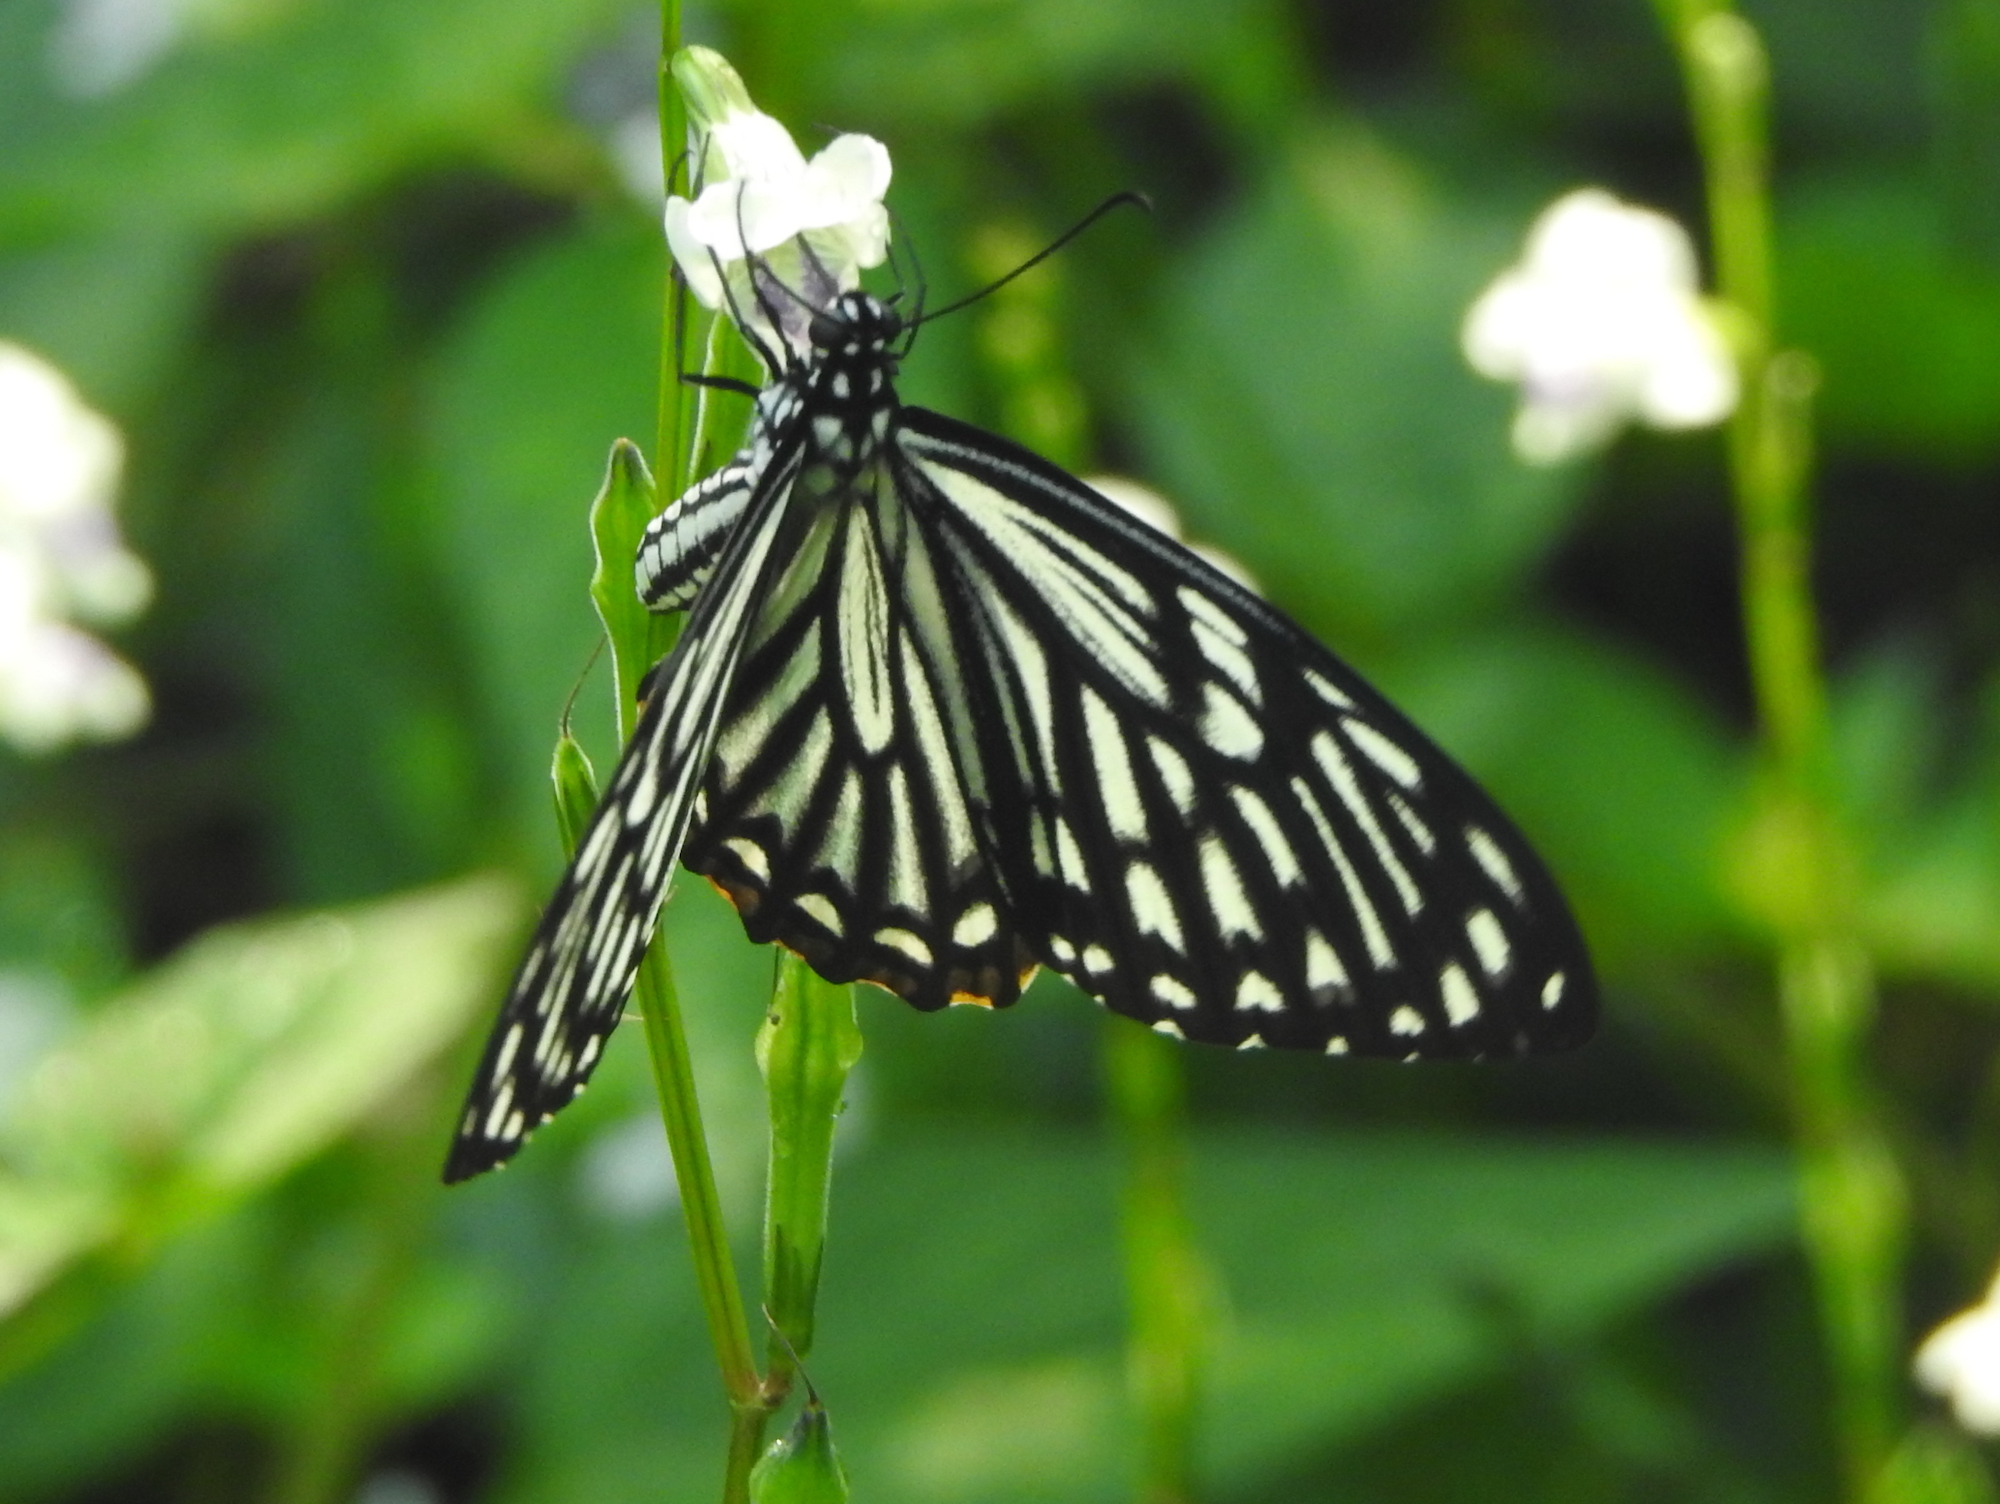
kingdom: Animalia
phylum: Arthropoda
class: Insecta
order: Lepidoptera
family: Papilionidae
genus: Chilasa
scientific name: Chilasa clytia
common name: Common mime
